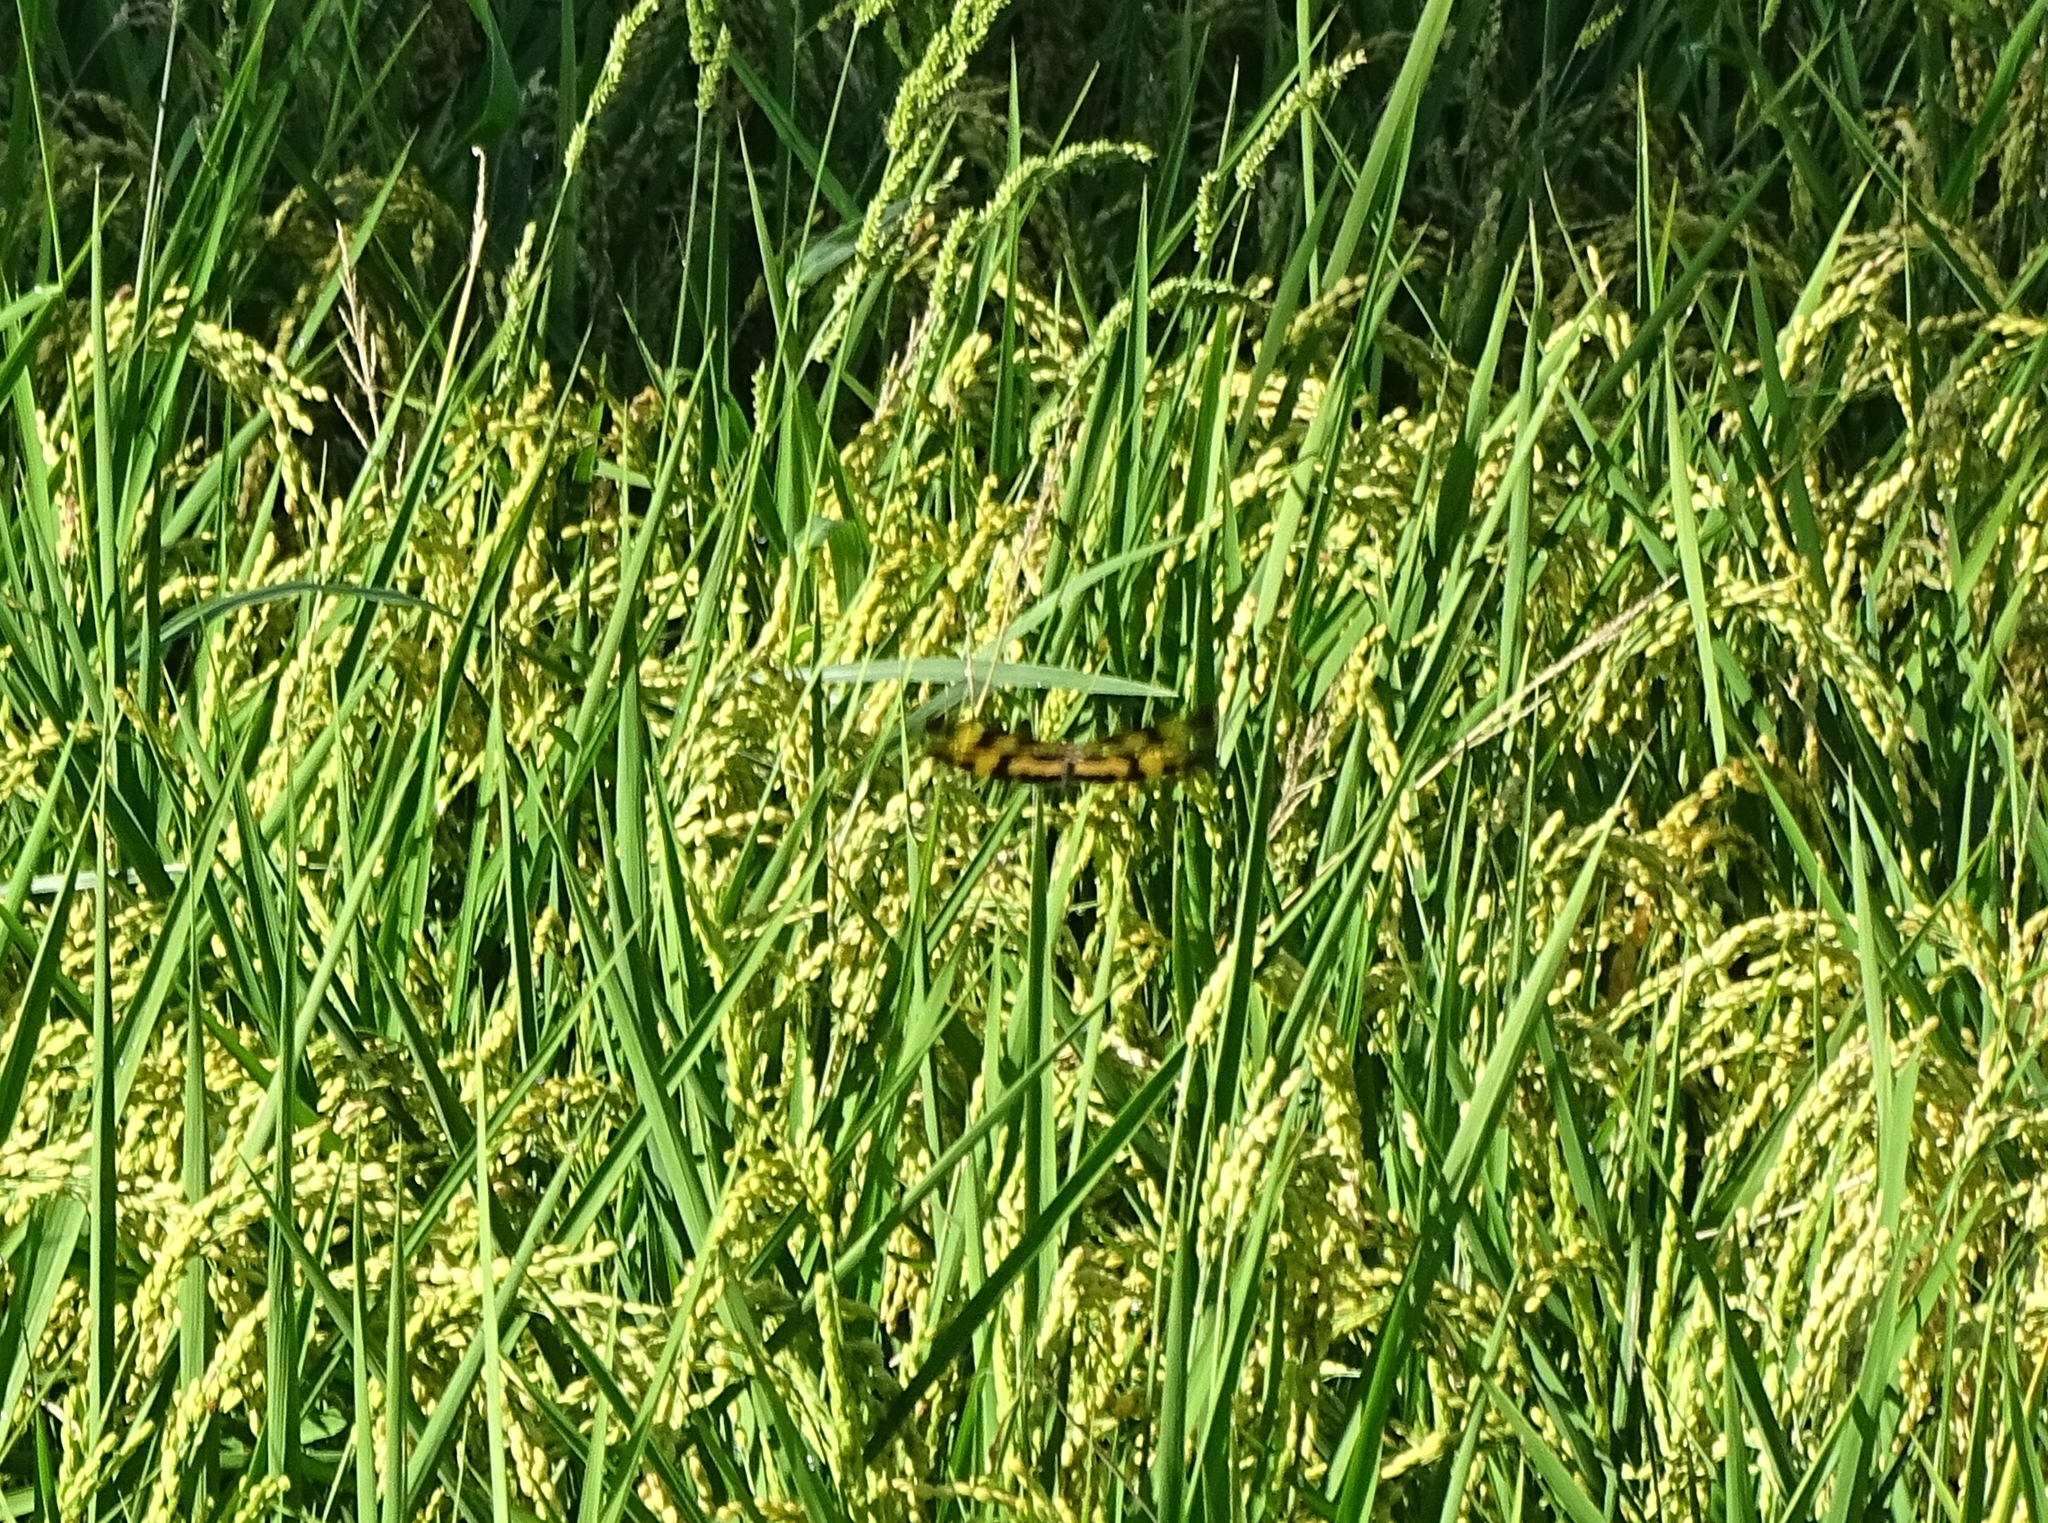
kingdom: Animalia
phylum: Arthropoda
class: Insecta
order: Odonata
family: Libellulidae
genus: Rhyothemis
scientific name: Rhyothemis variegata
